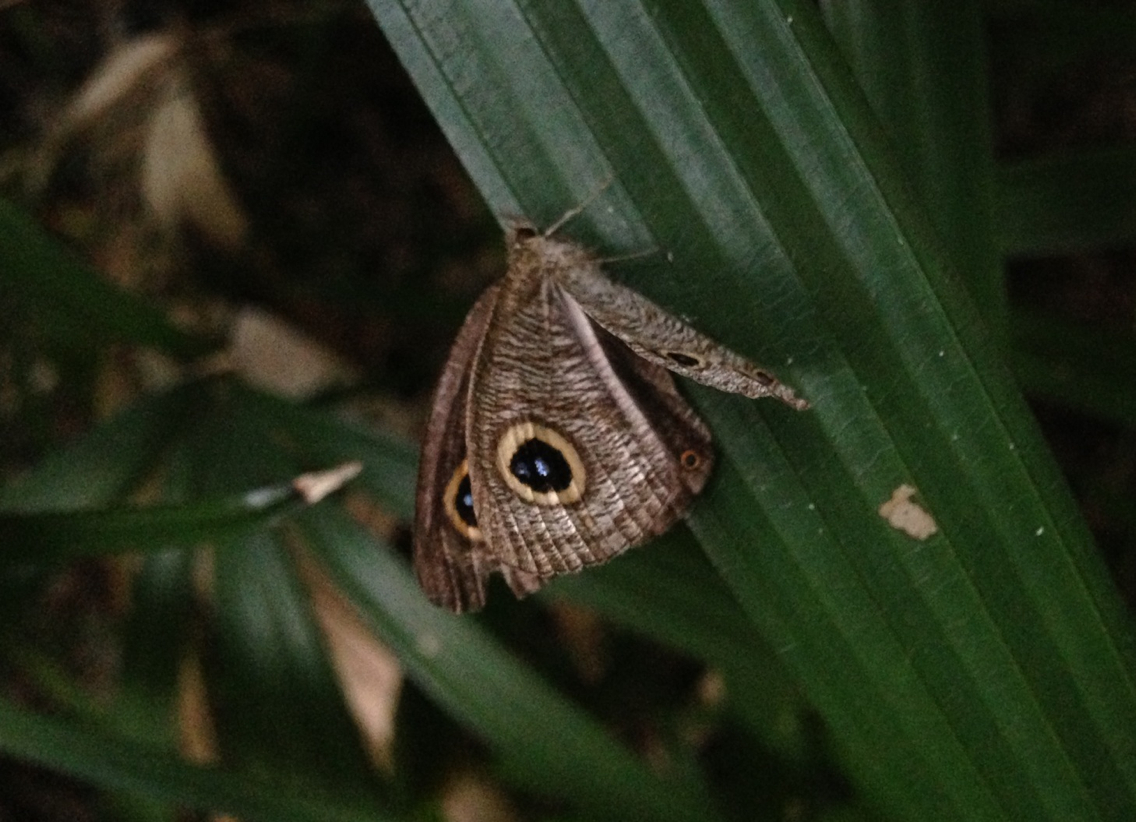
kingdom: Animalia
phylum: Arthropoda
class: Insecta
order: Lepidoptera
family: Nymphalidae
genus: Ypthima
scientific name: Ypthima baldus
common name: Common five-ring
